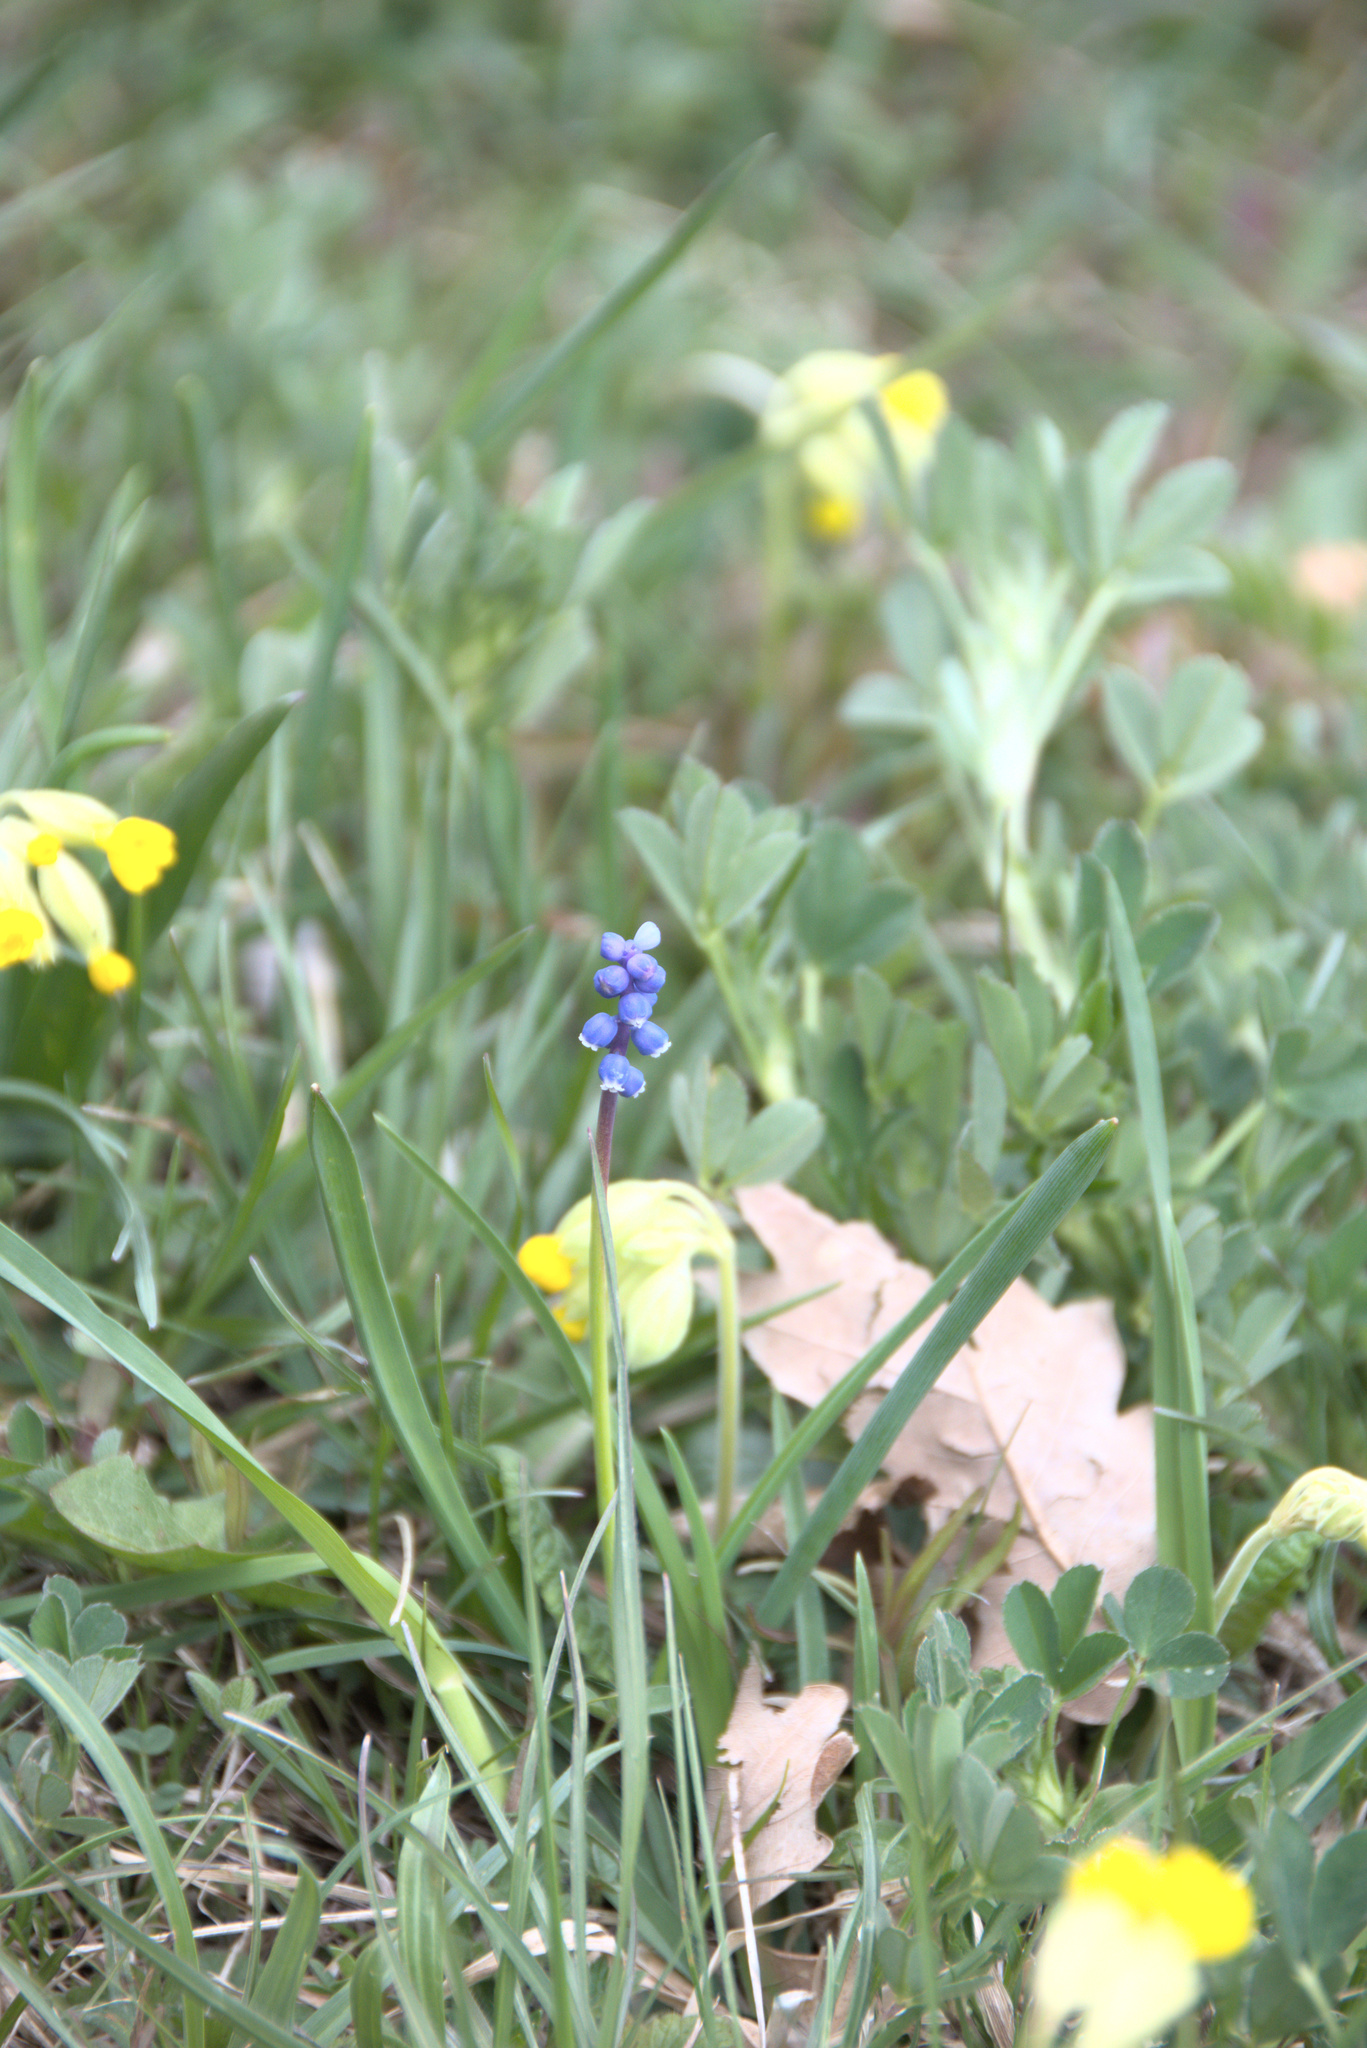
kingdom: Plantae
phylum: Tracheophyta
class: Liliopsida
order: Asparagales
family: Asparagaceae
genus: Muscari
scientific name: Muscari botryoides
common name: Compact grape-hyacinth
